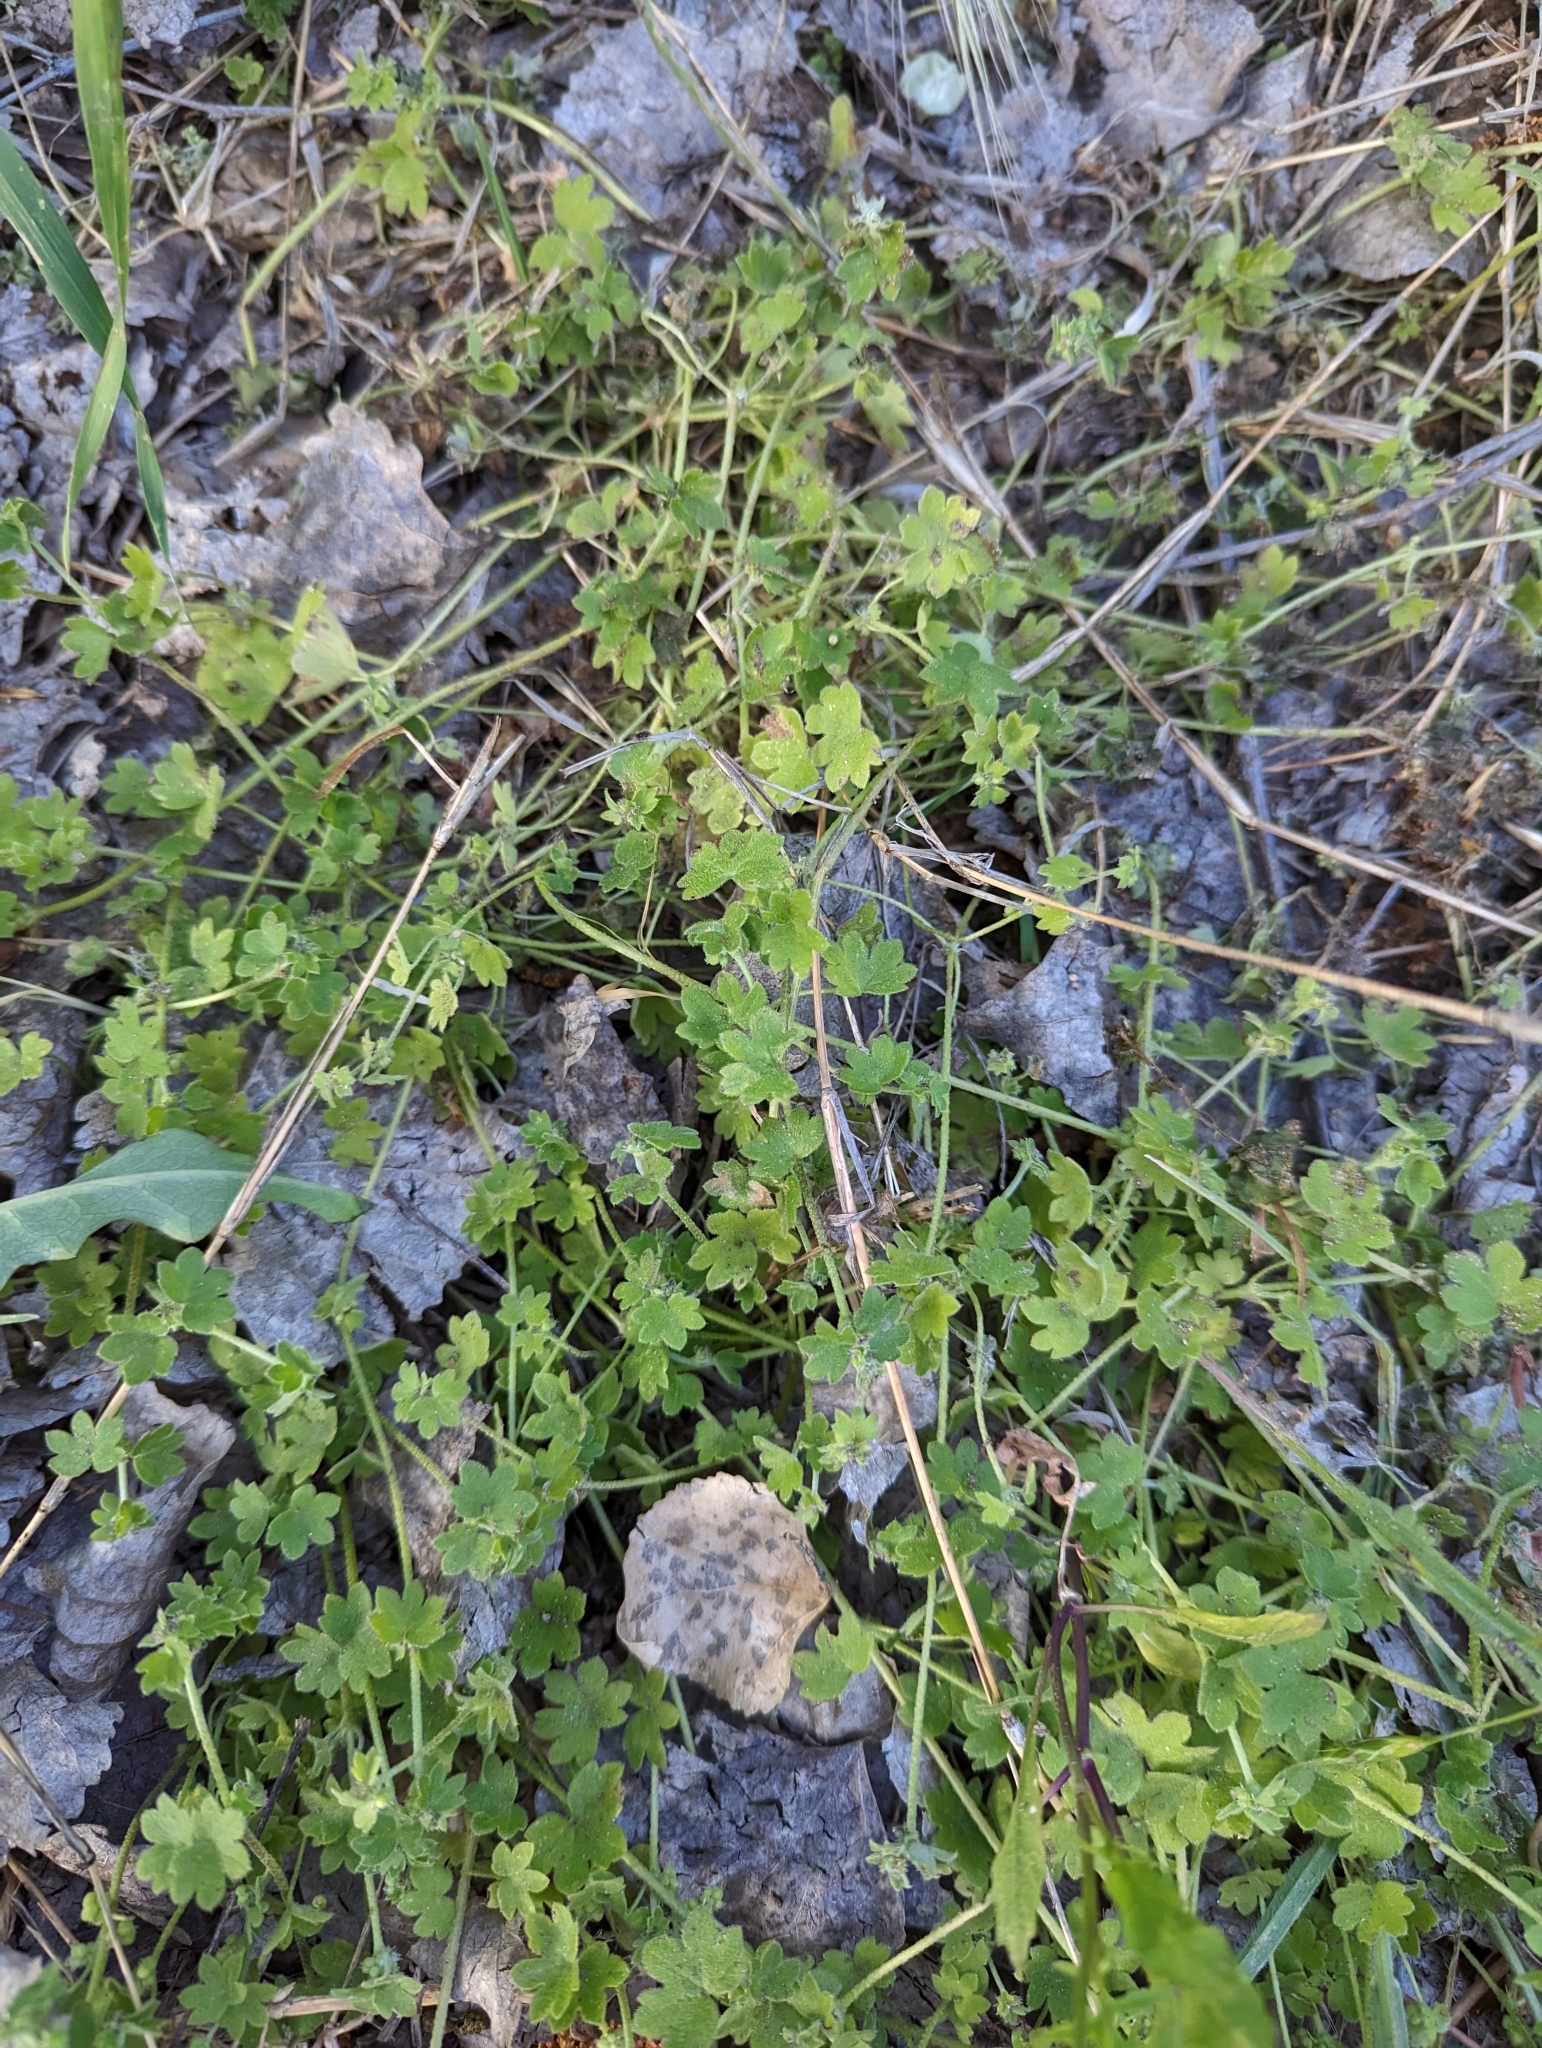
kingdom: Plantae
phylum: Tracheophyta
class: Magnoliopsida
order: Apiales
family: Apiaceae
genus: Bowlesia
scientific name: Bowlesia incana
